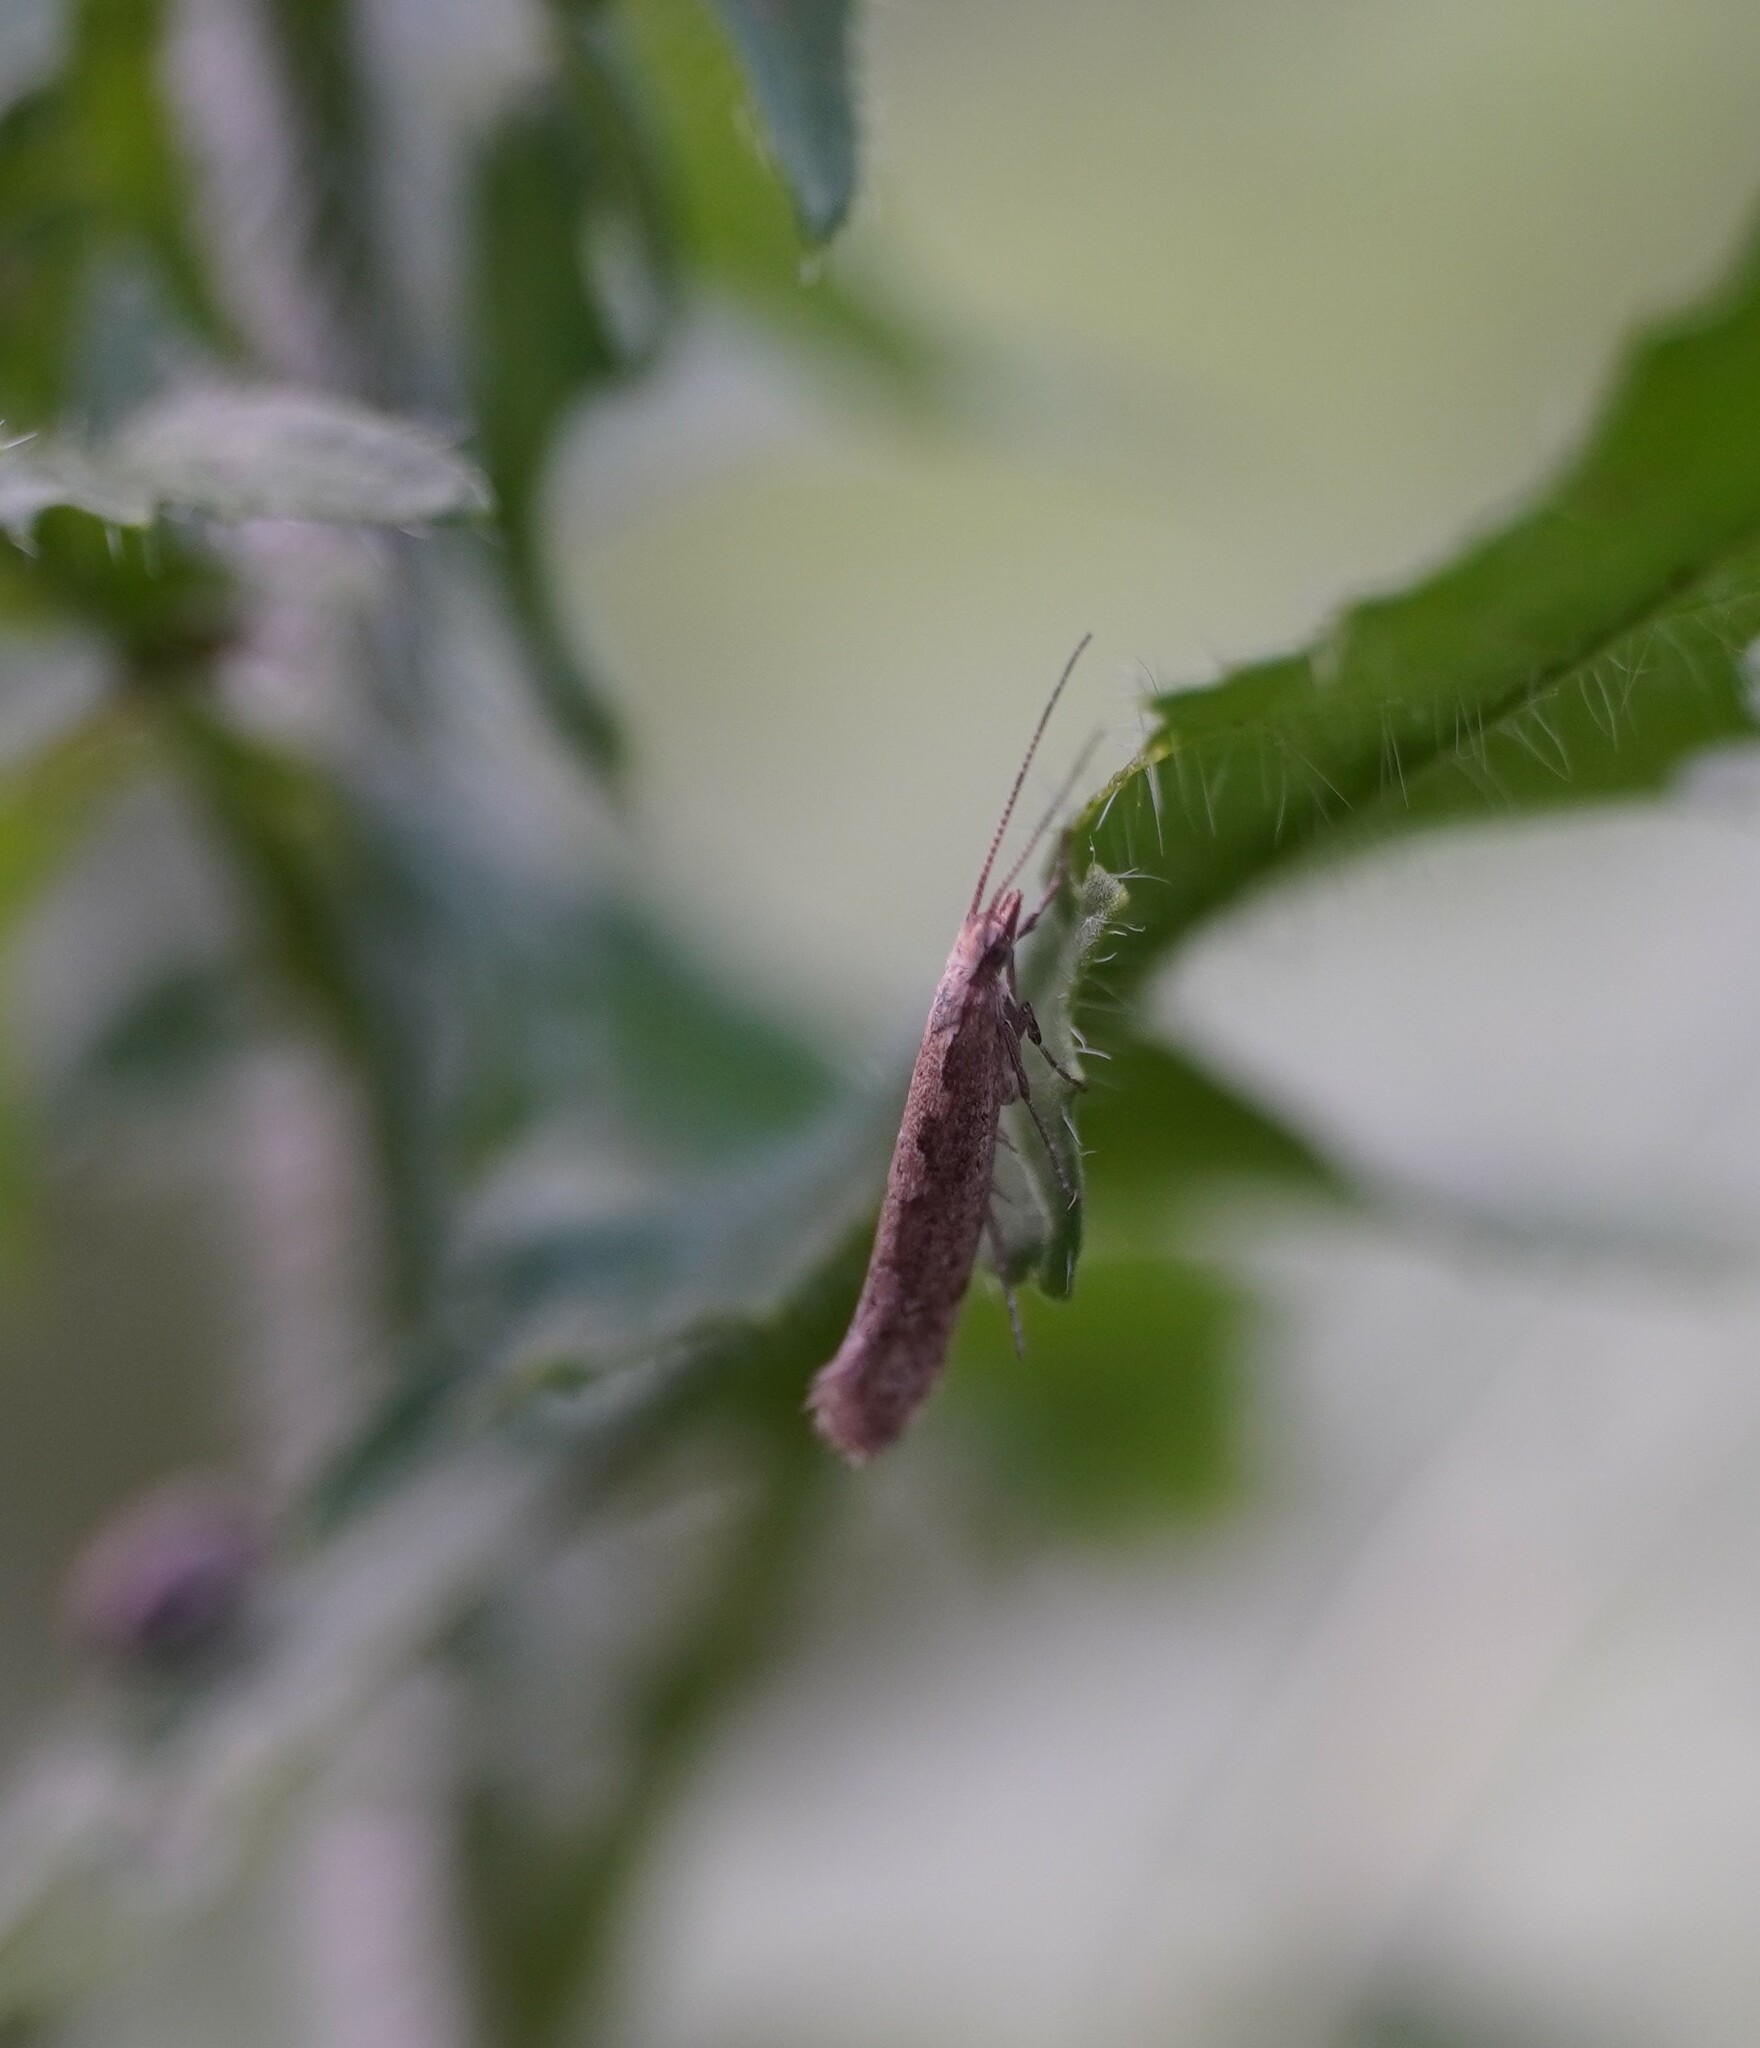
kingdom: Animalia
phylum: Arthropoda
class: Insecta
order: Lepidoptera
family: Plutellidae
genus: Plutella
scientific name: Plutella xylostella
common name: Diamond-back moth
